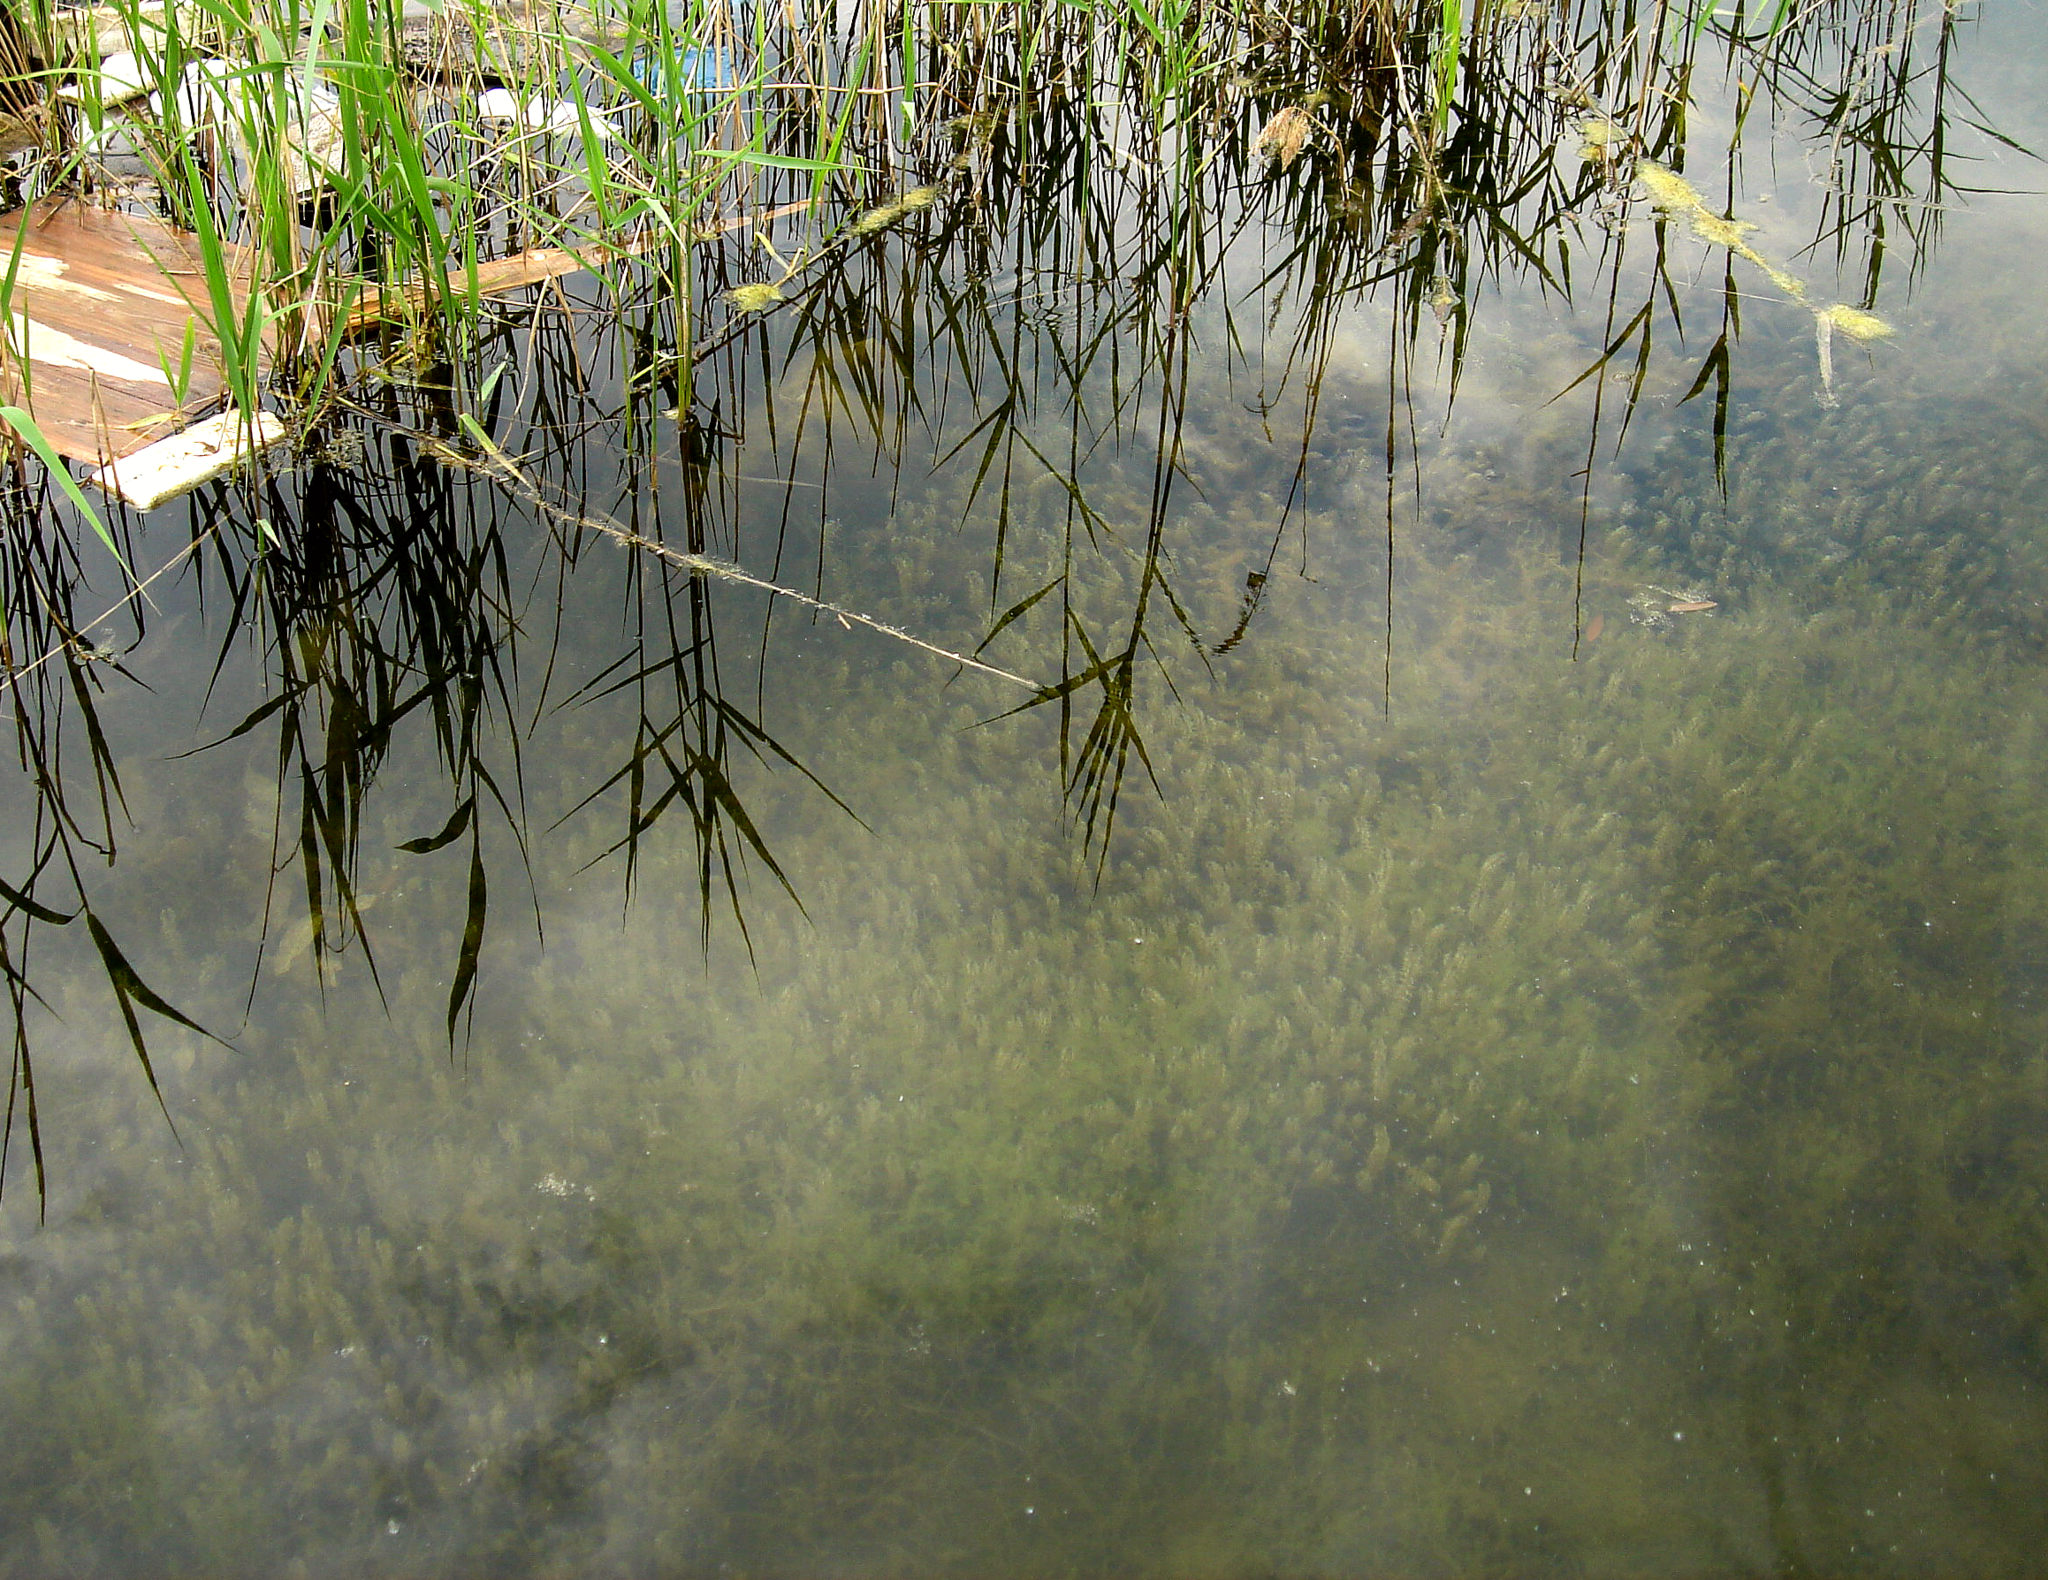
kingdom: Plantae
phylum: Tracheophyta
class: Liliopsida
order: Alismatales
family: Hydrocharitaceae
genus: Elodea
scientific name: Elodea canadensis
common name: Canadian waterweed
